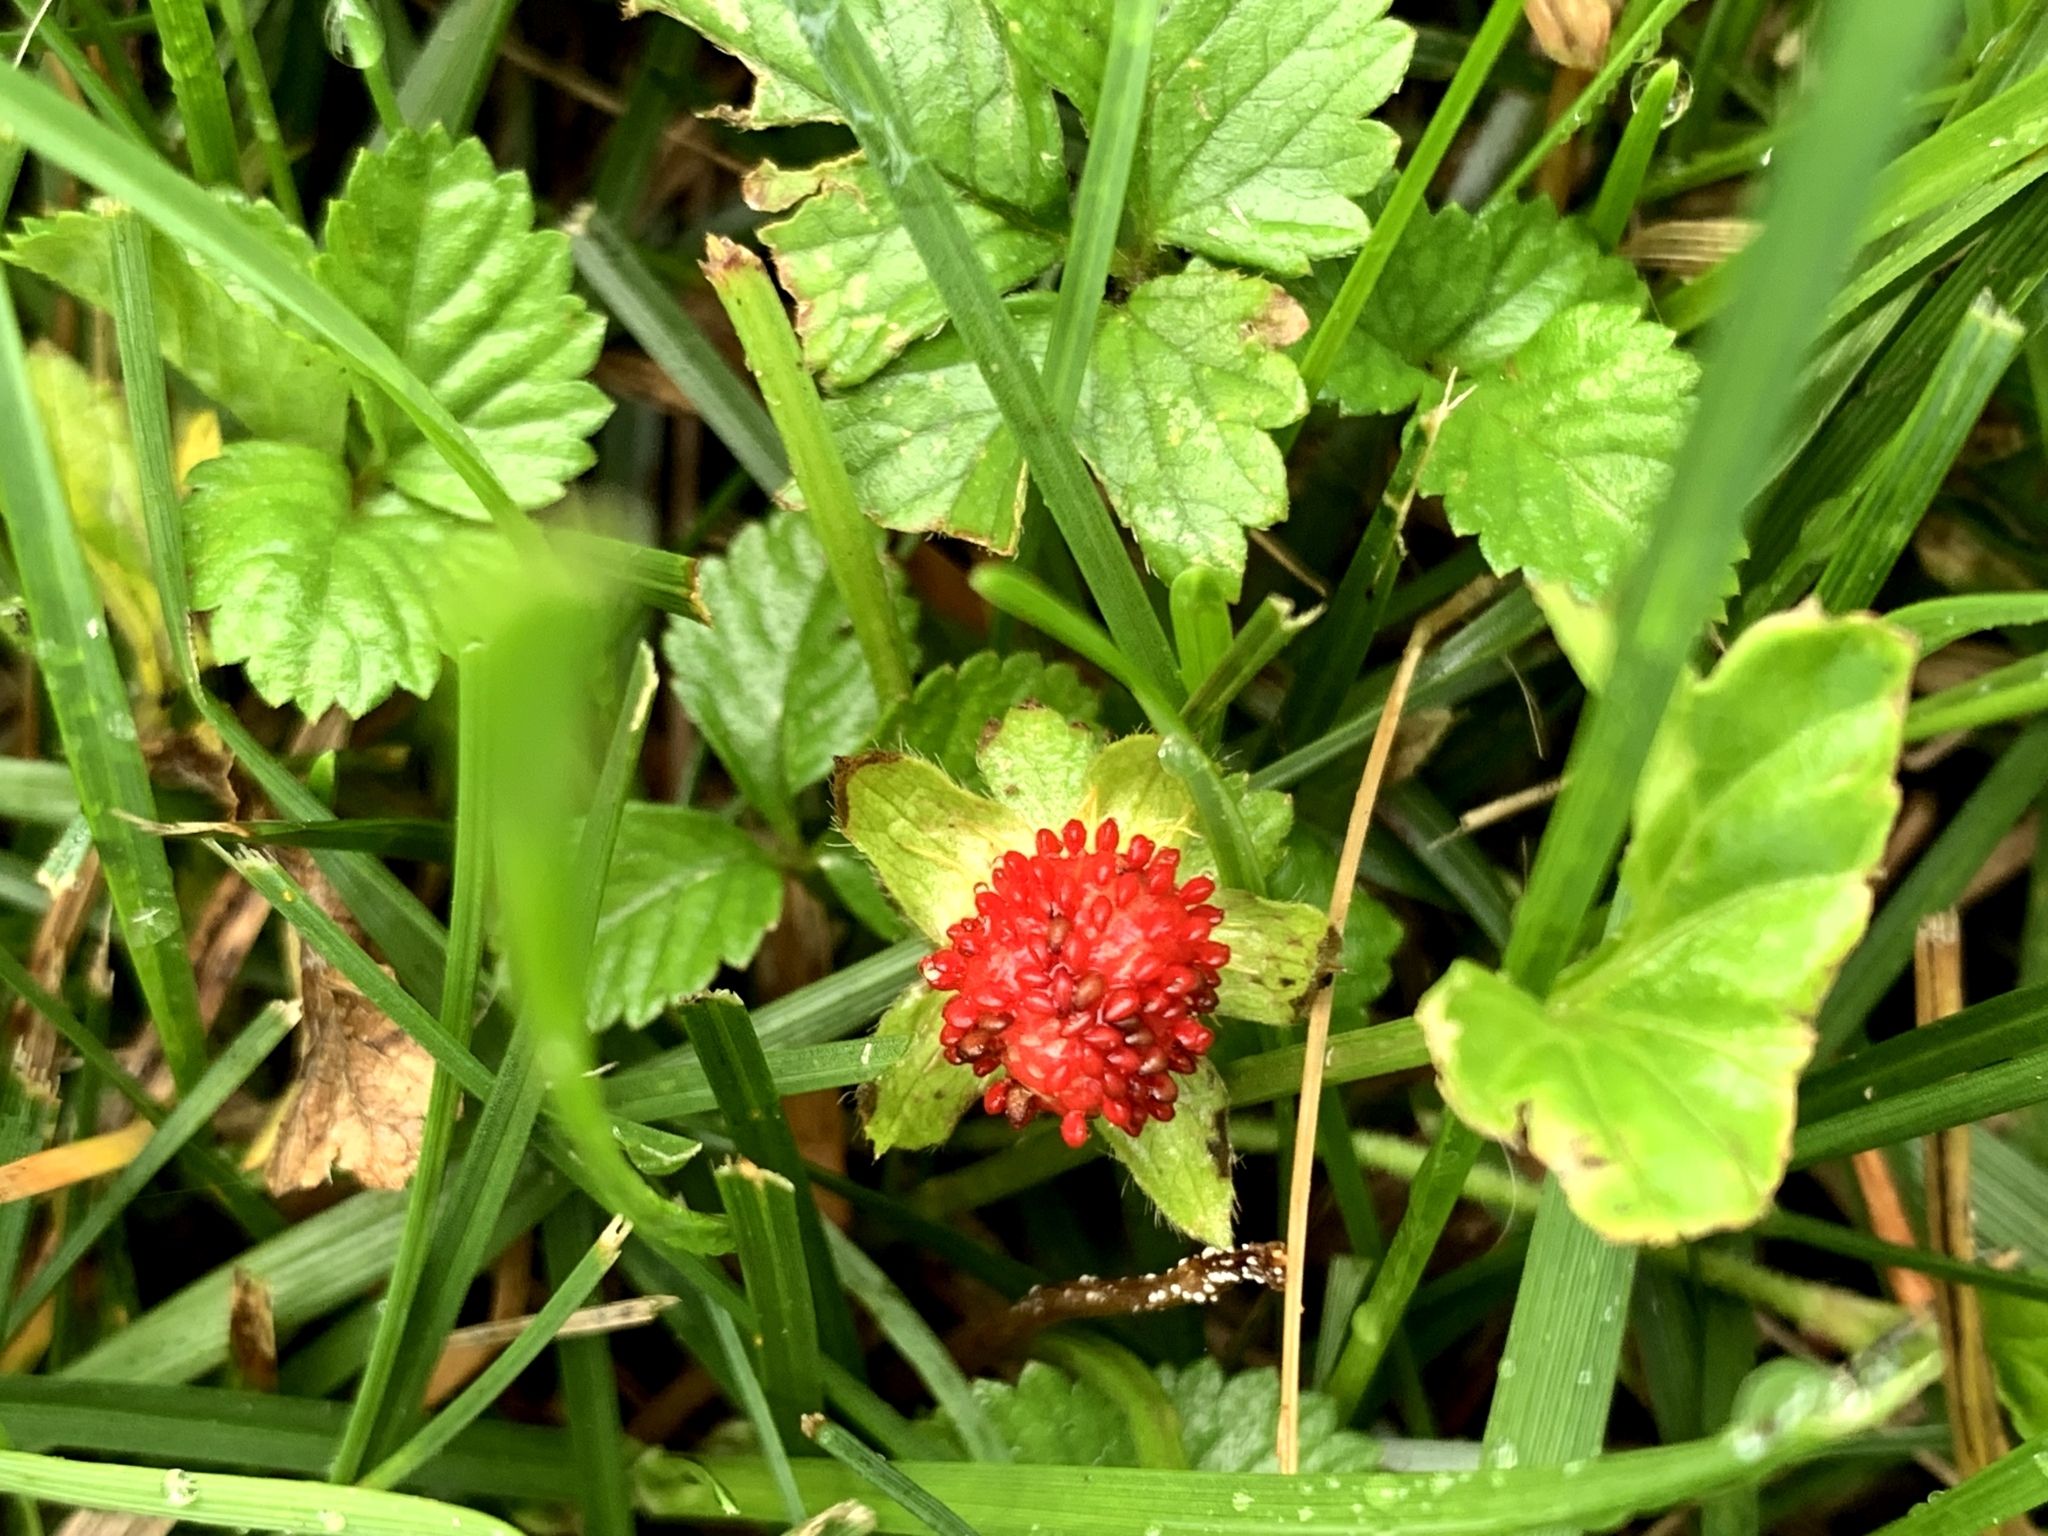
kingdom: Plantae
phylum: Tracheophyta
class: Magnoliopsida
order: Rosales
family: Rosaceae
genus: Potentilla
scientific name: Potentilla indica
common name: Yellow-flowered strawberry
